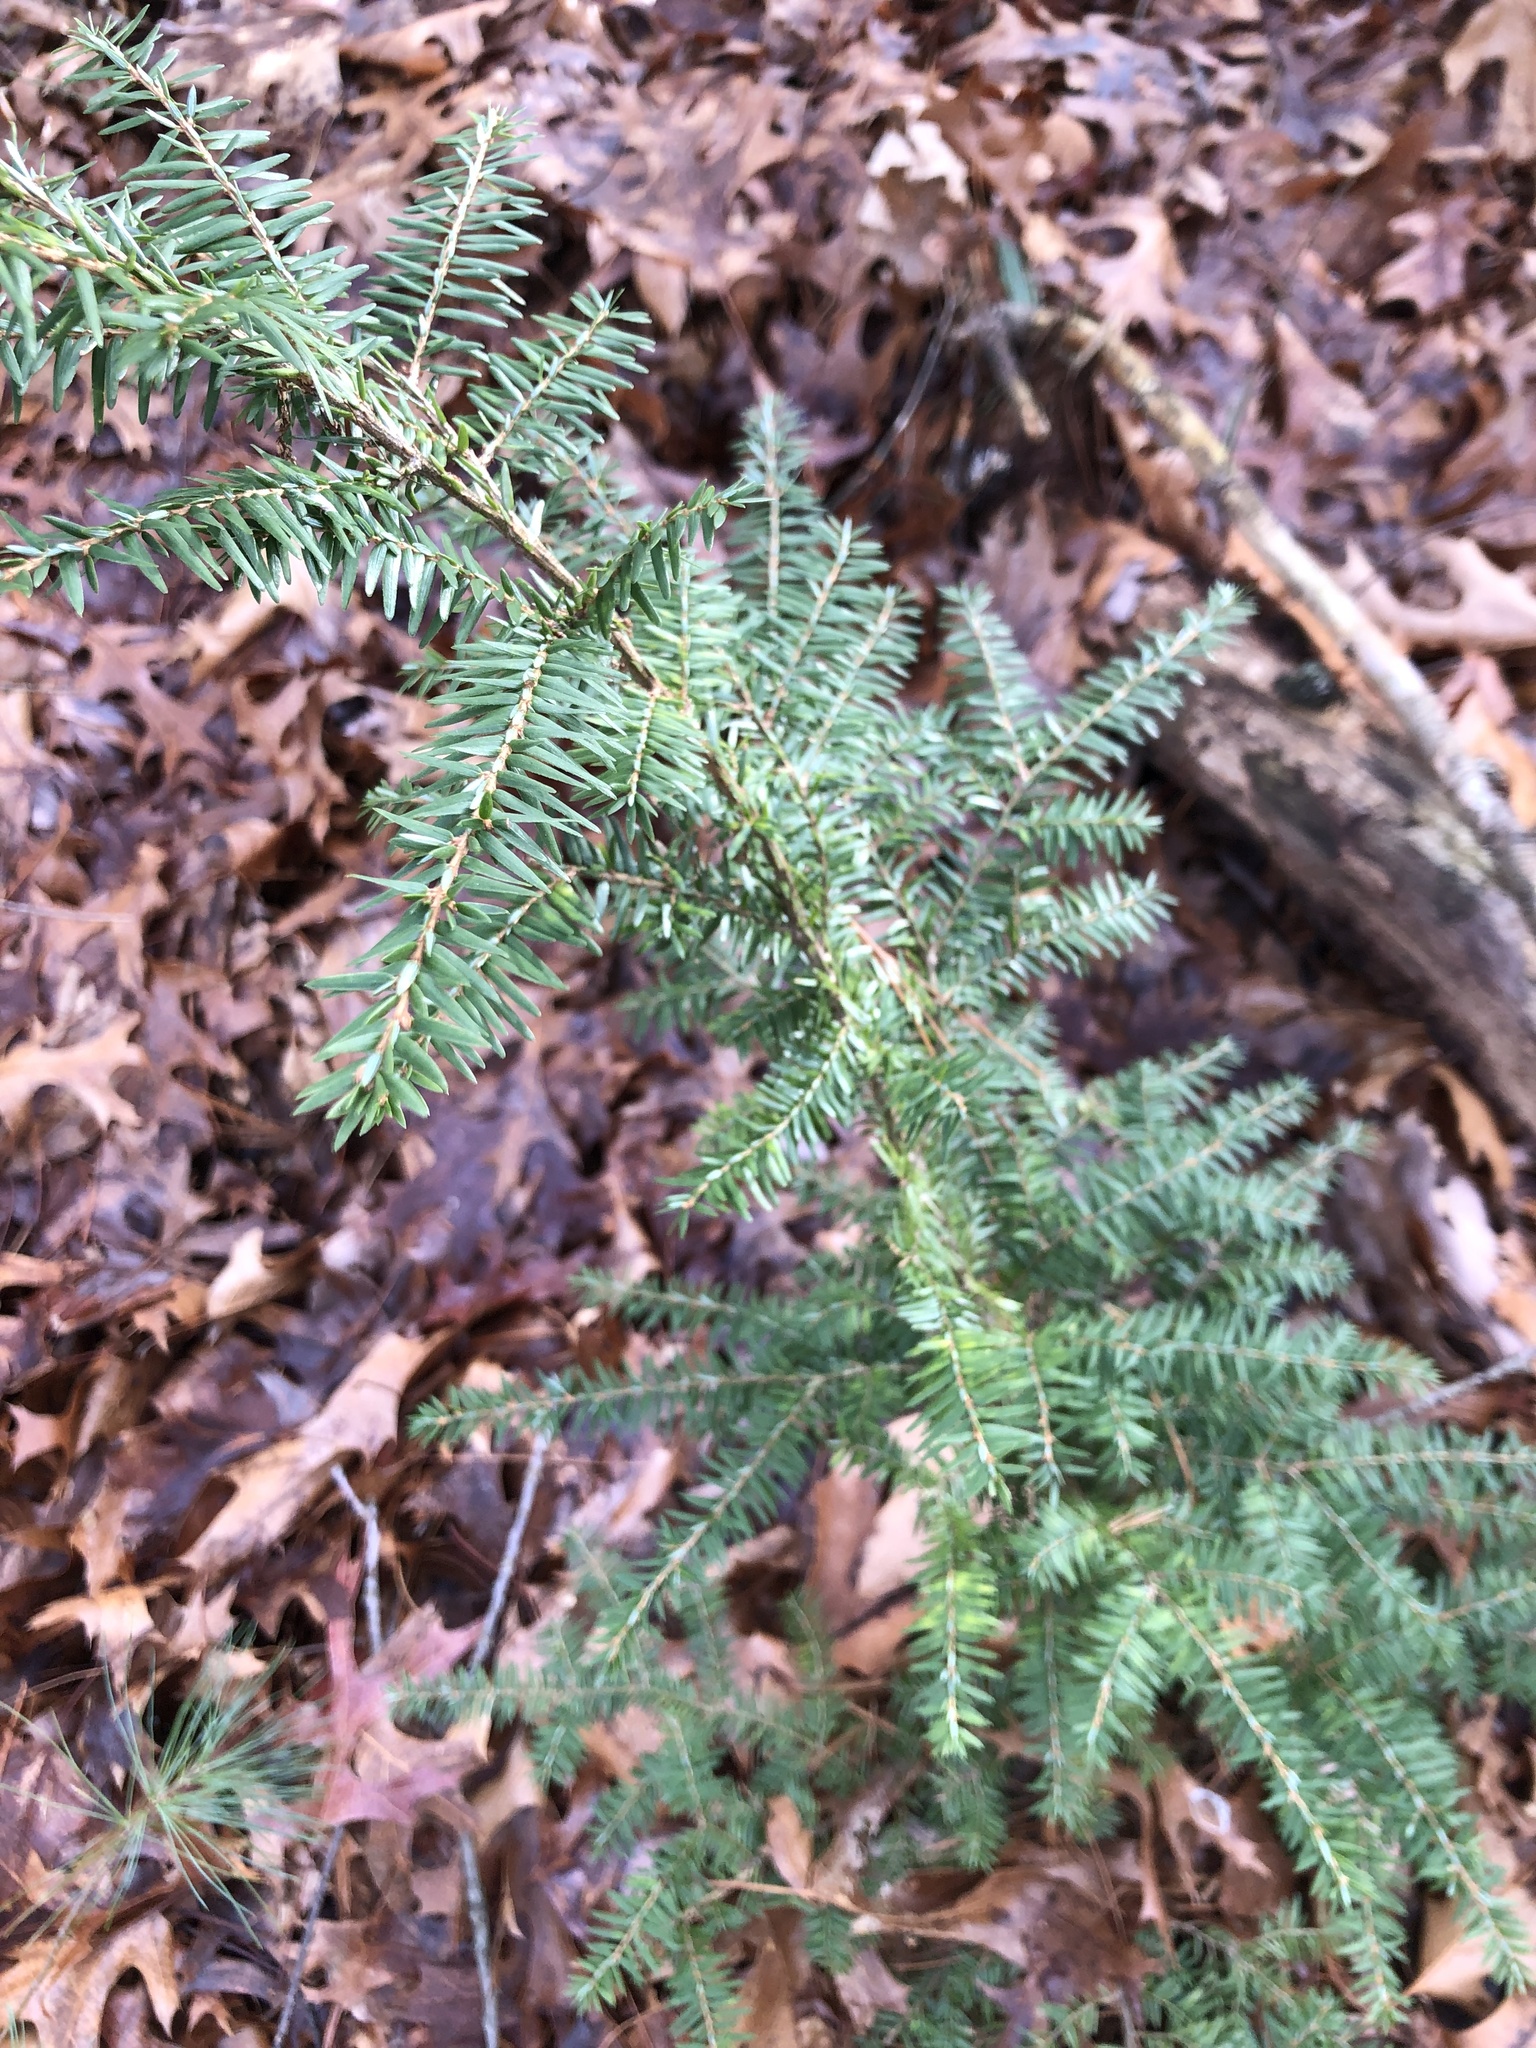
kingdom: Plantae
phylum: Tracheophyta
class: Pinopsida
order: Pinales
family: Pinaceae
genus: Tsuga
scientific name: Tsuga canadensis
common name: Eastern hemlock
